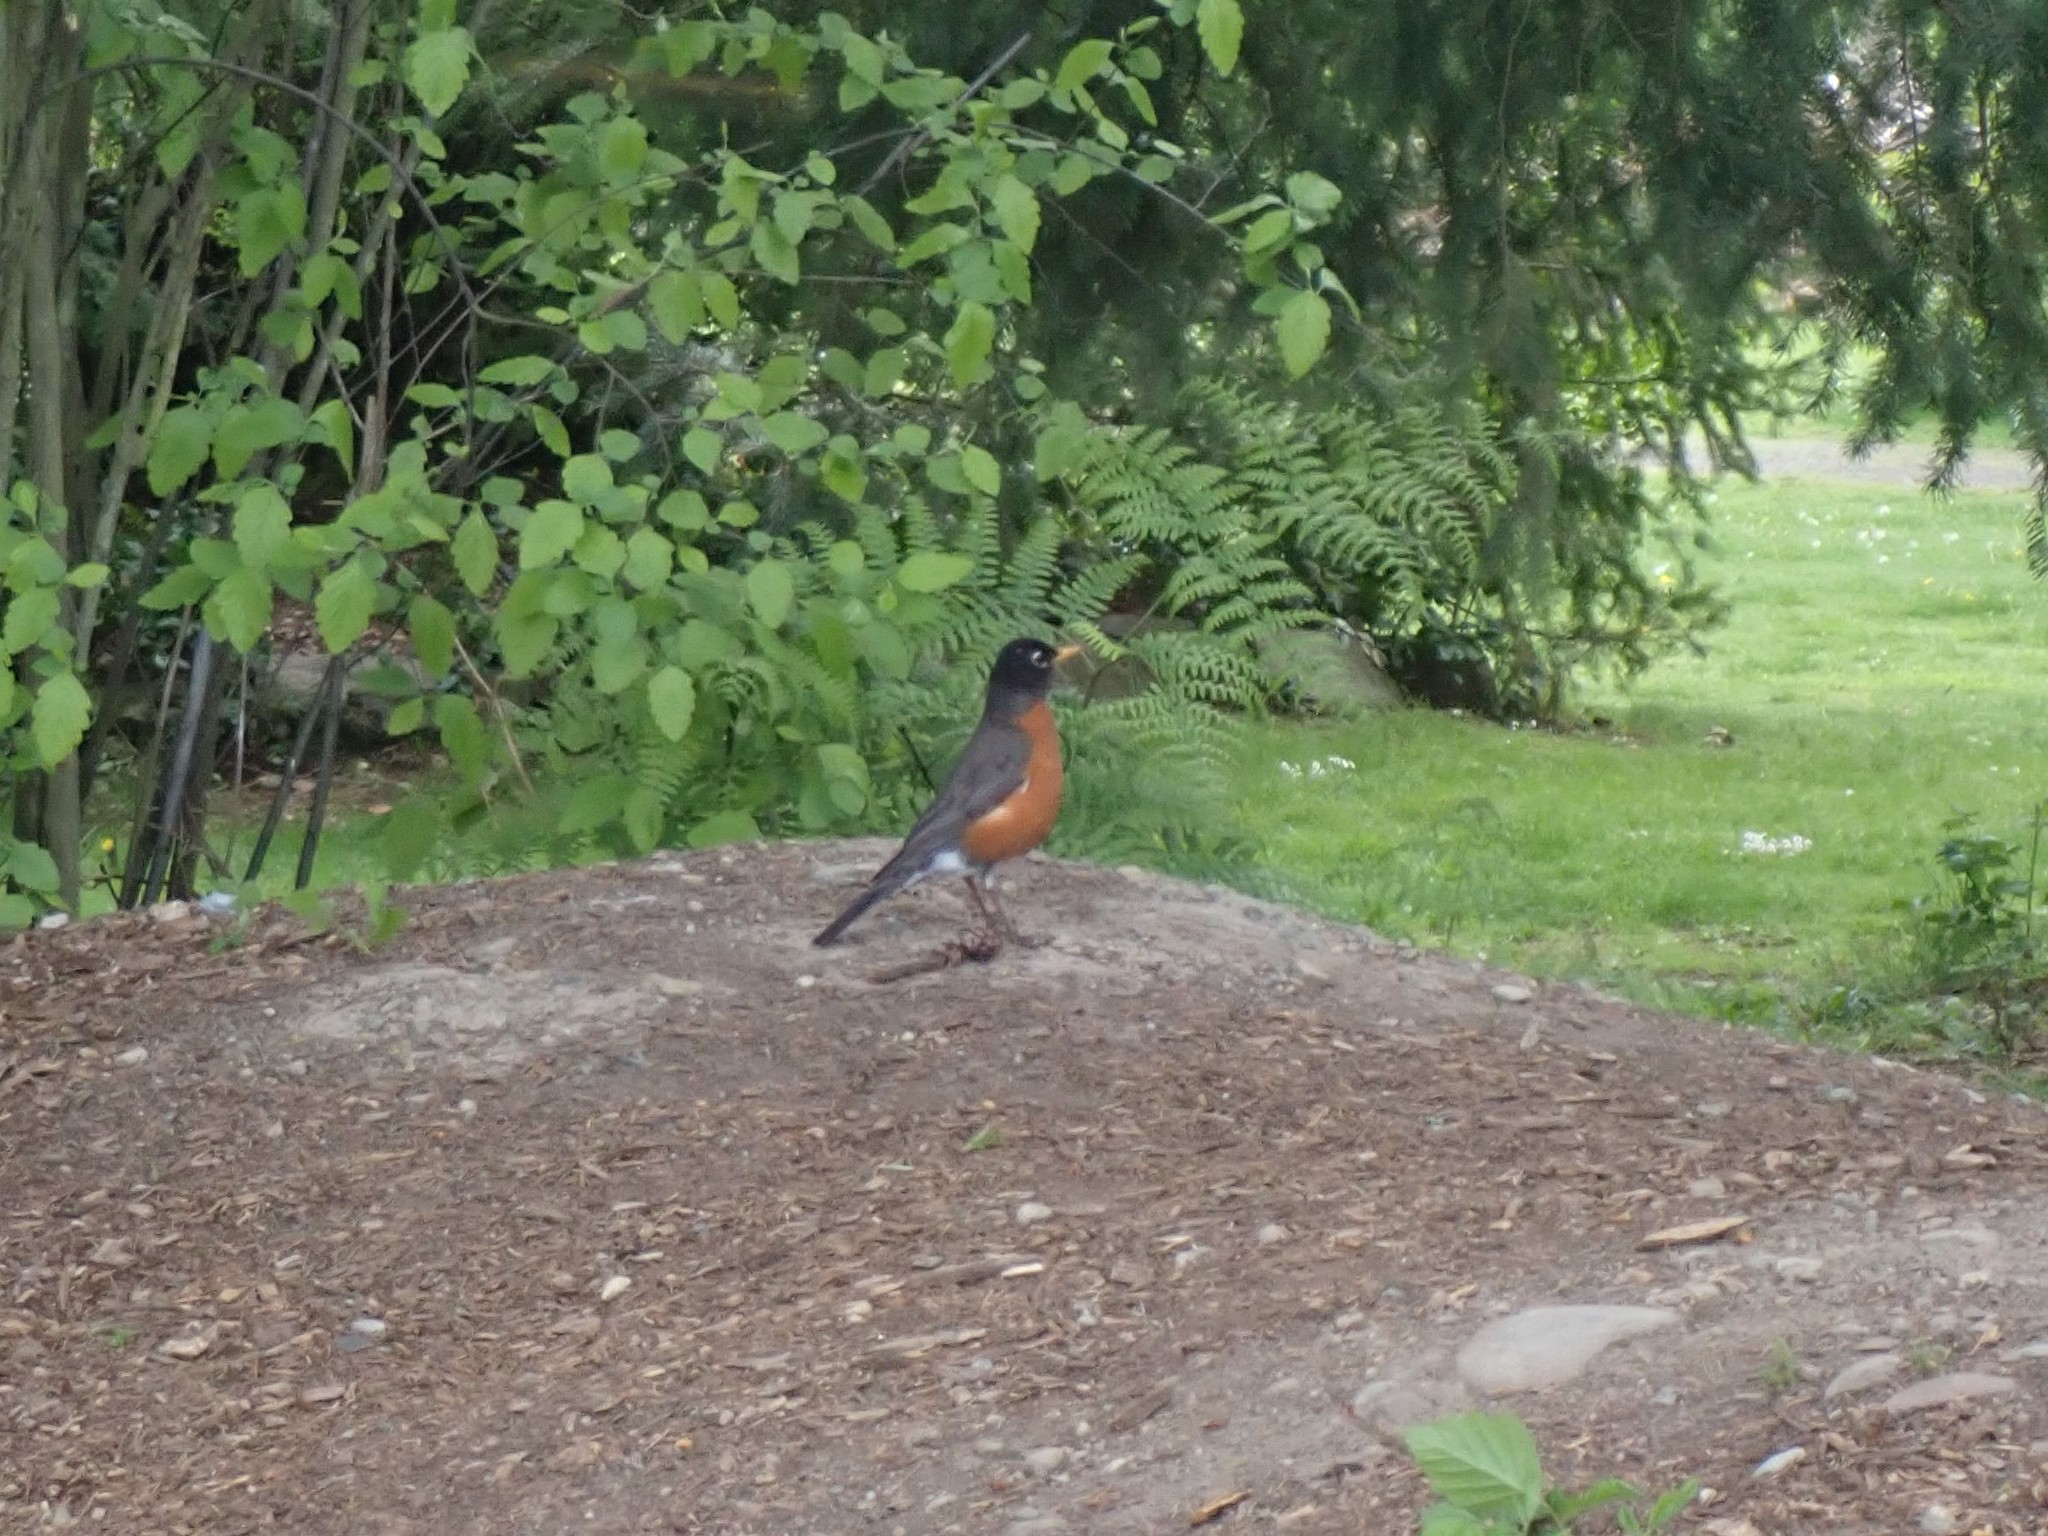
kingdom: Animalia
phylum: Chordata
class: Aves
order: Passeriformes
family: Turdidae
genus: Turdus
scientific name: Turdus migratorius
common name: American robin
